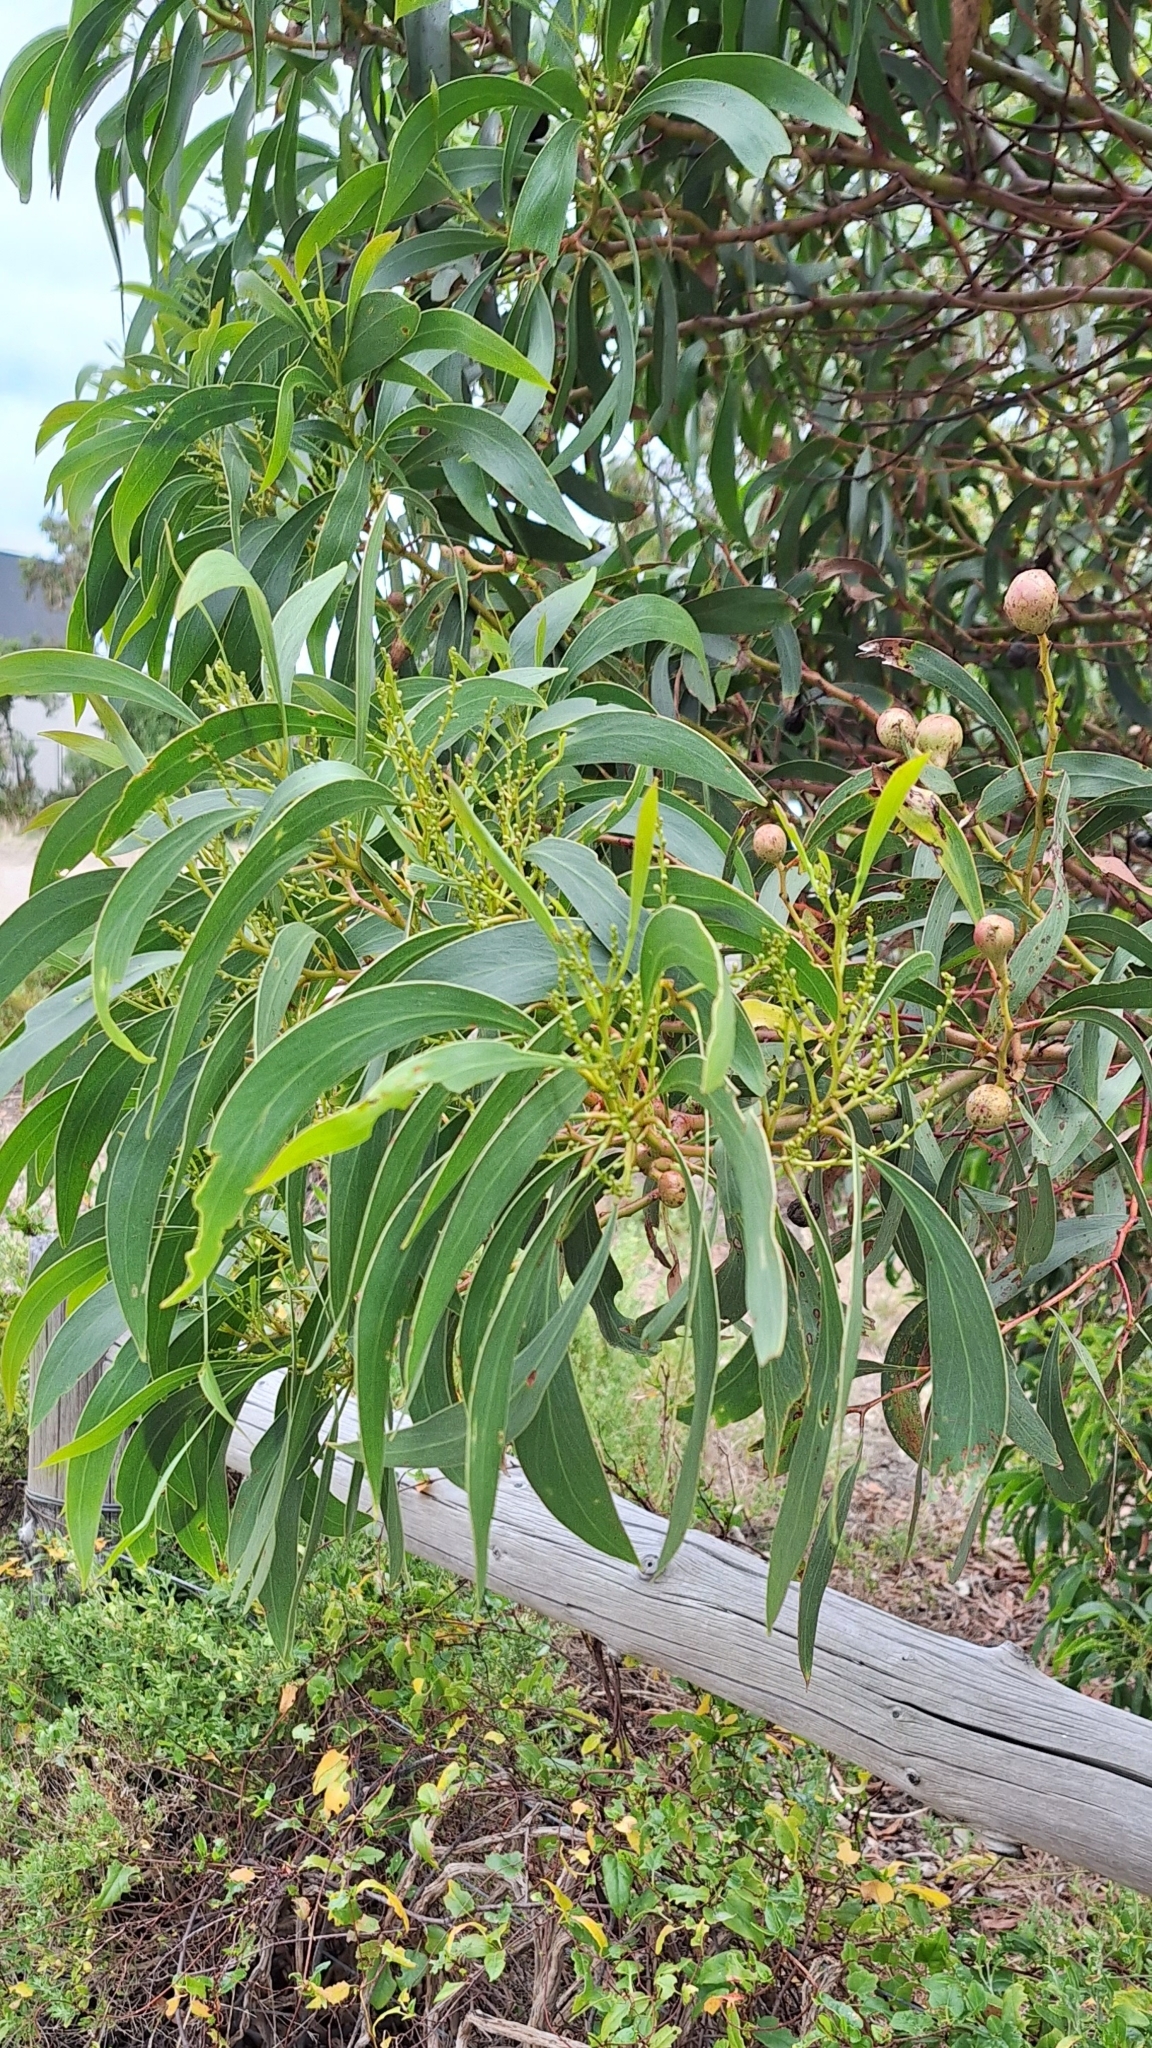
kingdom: Plantae
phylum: Tracheophyta
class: Magnoliopsida
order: Fabales
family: Fabaceae
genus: Acacia
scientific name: Acacia pycnantha
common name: Golden wattle
